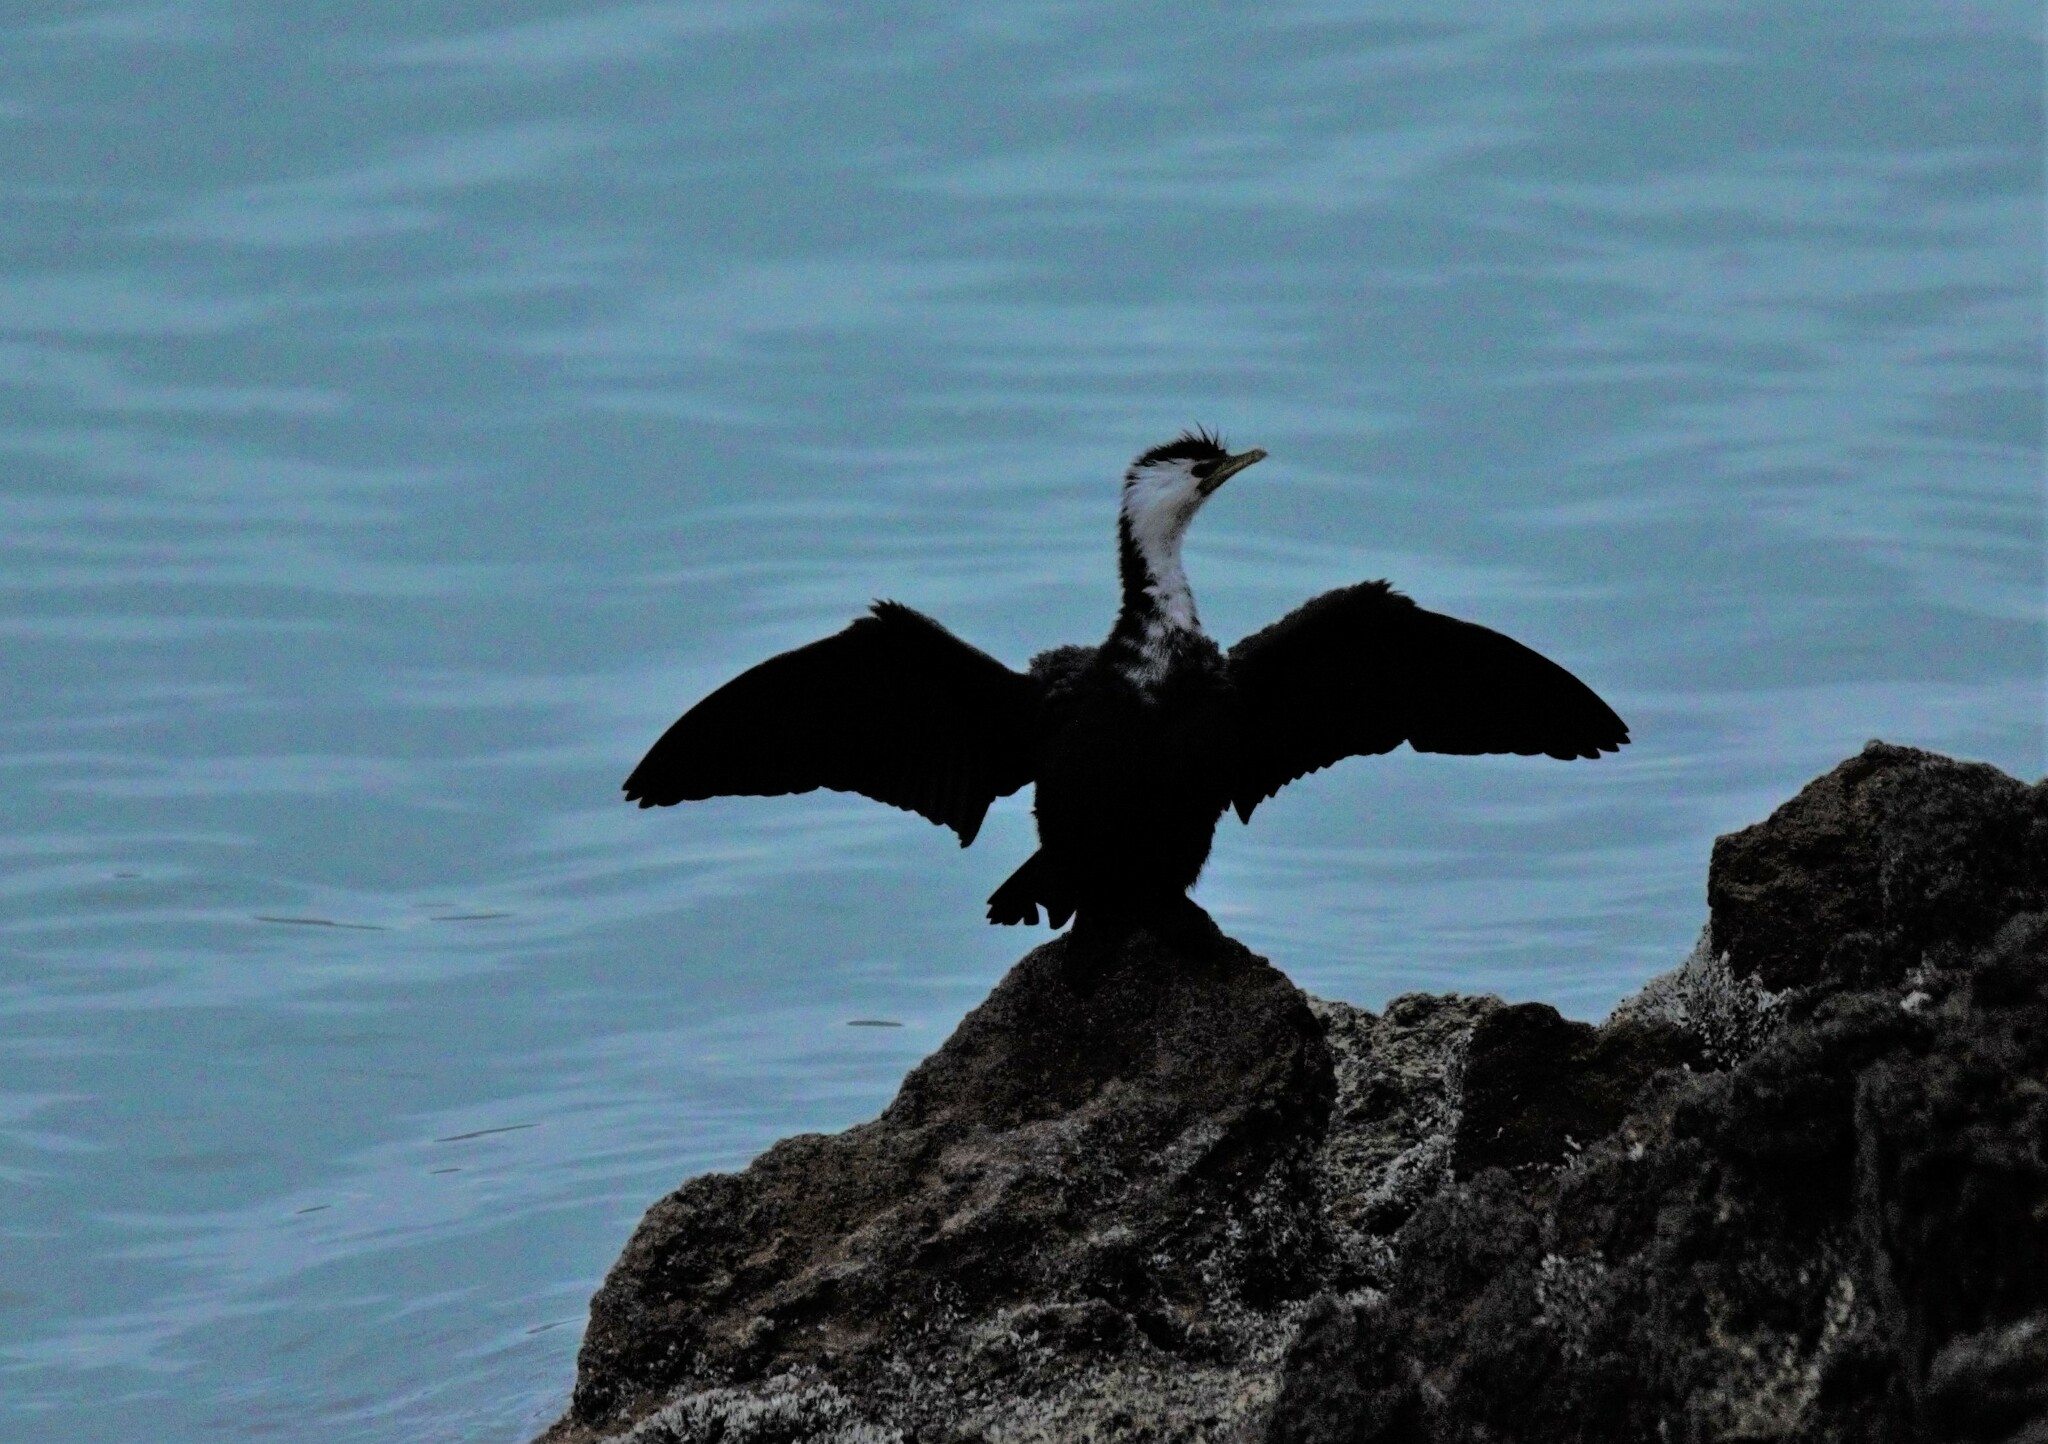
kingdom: Animalia
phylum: Chordata
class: Aves
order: Suliformes
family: Phalacrocoracidae
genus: Microcarbo
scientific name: Microcarbo melanoleucos
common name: Little pied cormorant
